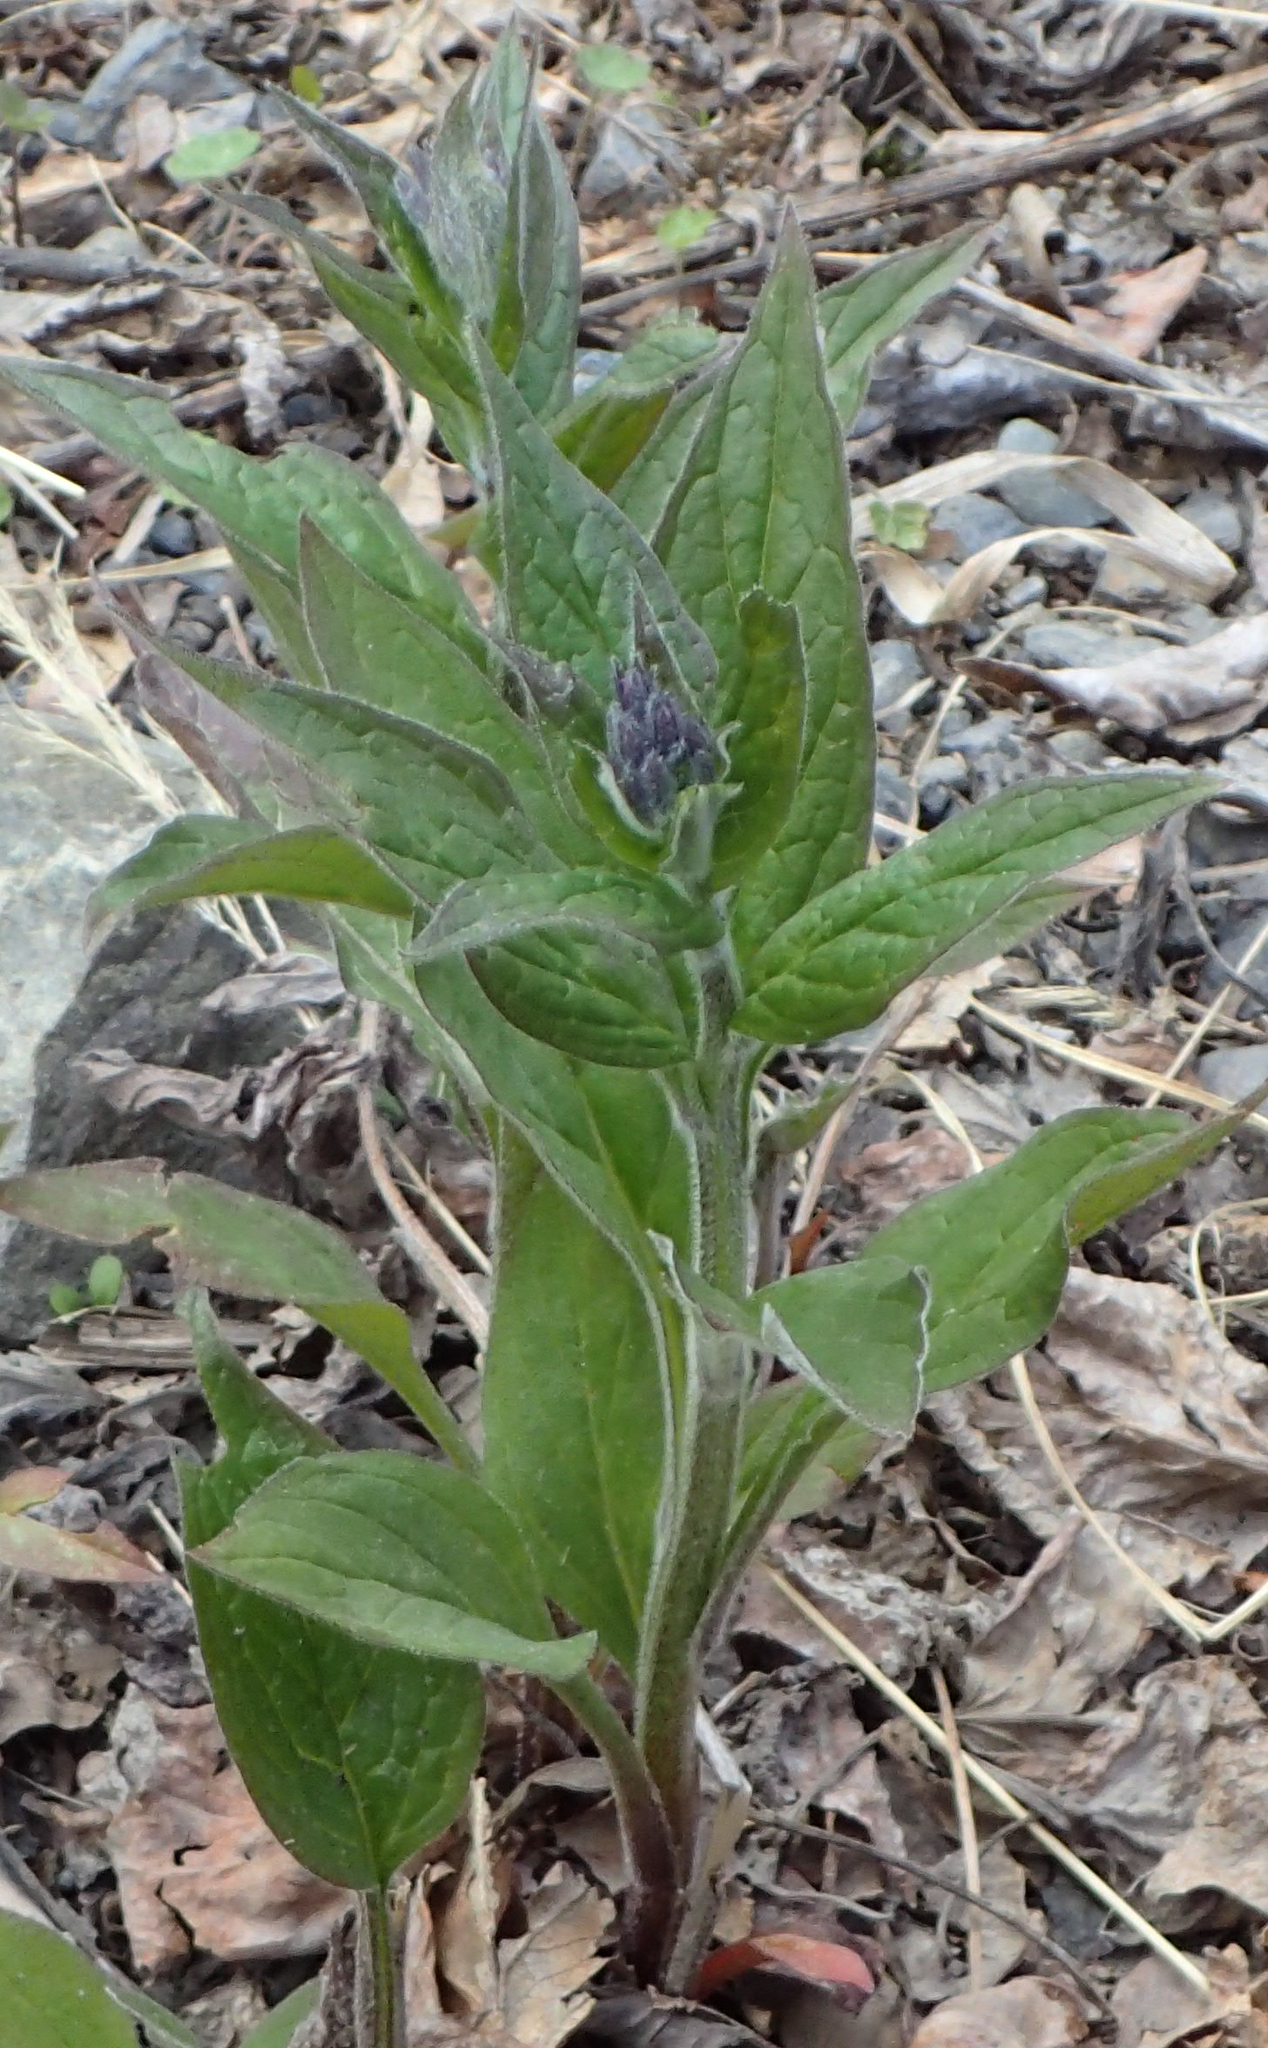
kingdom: Plantae
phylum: Tracheophyta
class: Magnoliopsida
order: Boraginales
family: Boraginaceae
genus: Mertensia
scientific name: Mertensia paniculata
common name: Panicled bluebells
